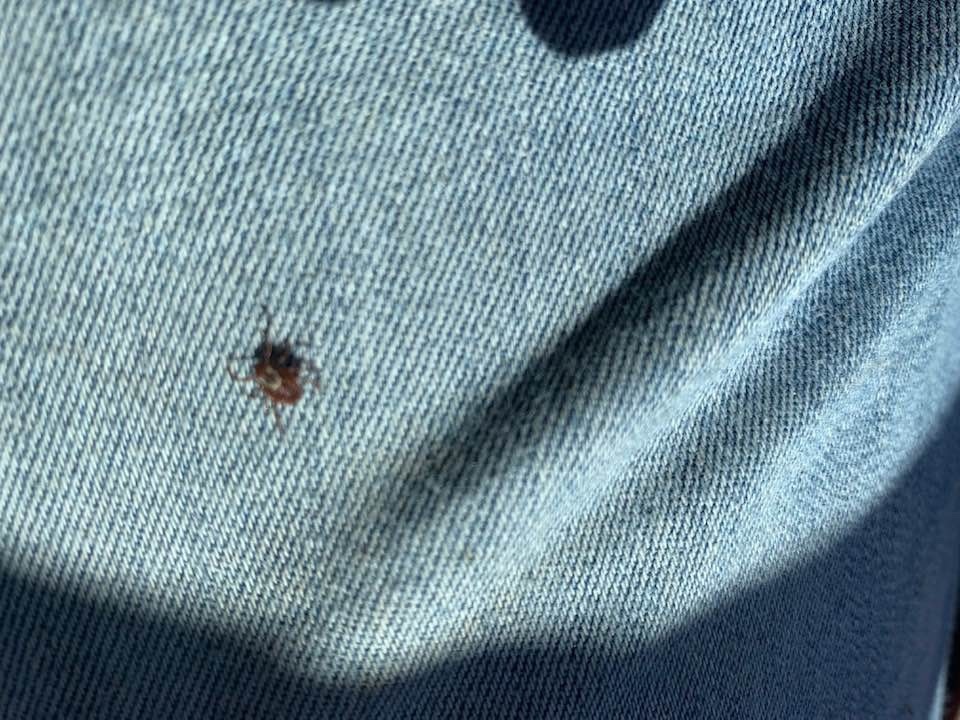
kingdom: Animalia
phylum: Arthropoda
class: Arachnida
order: Ixodida
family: Ixodidae
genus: Dermacentor
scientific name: Dermacentor variabilis
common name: American dog tick
